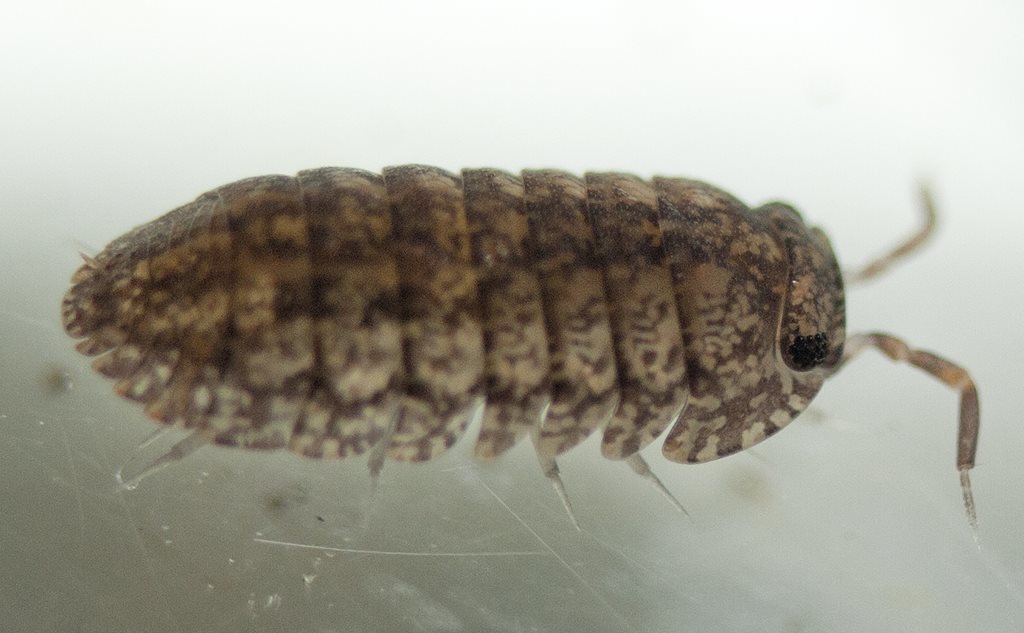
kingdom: Animalia
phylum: Arthropoda
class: Malacostraca
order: Isopoda
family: Armadillidae
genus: Cubaris
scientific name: Cubaris marmorata
